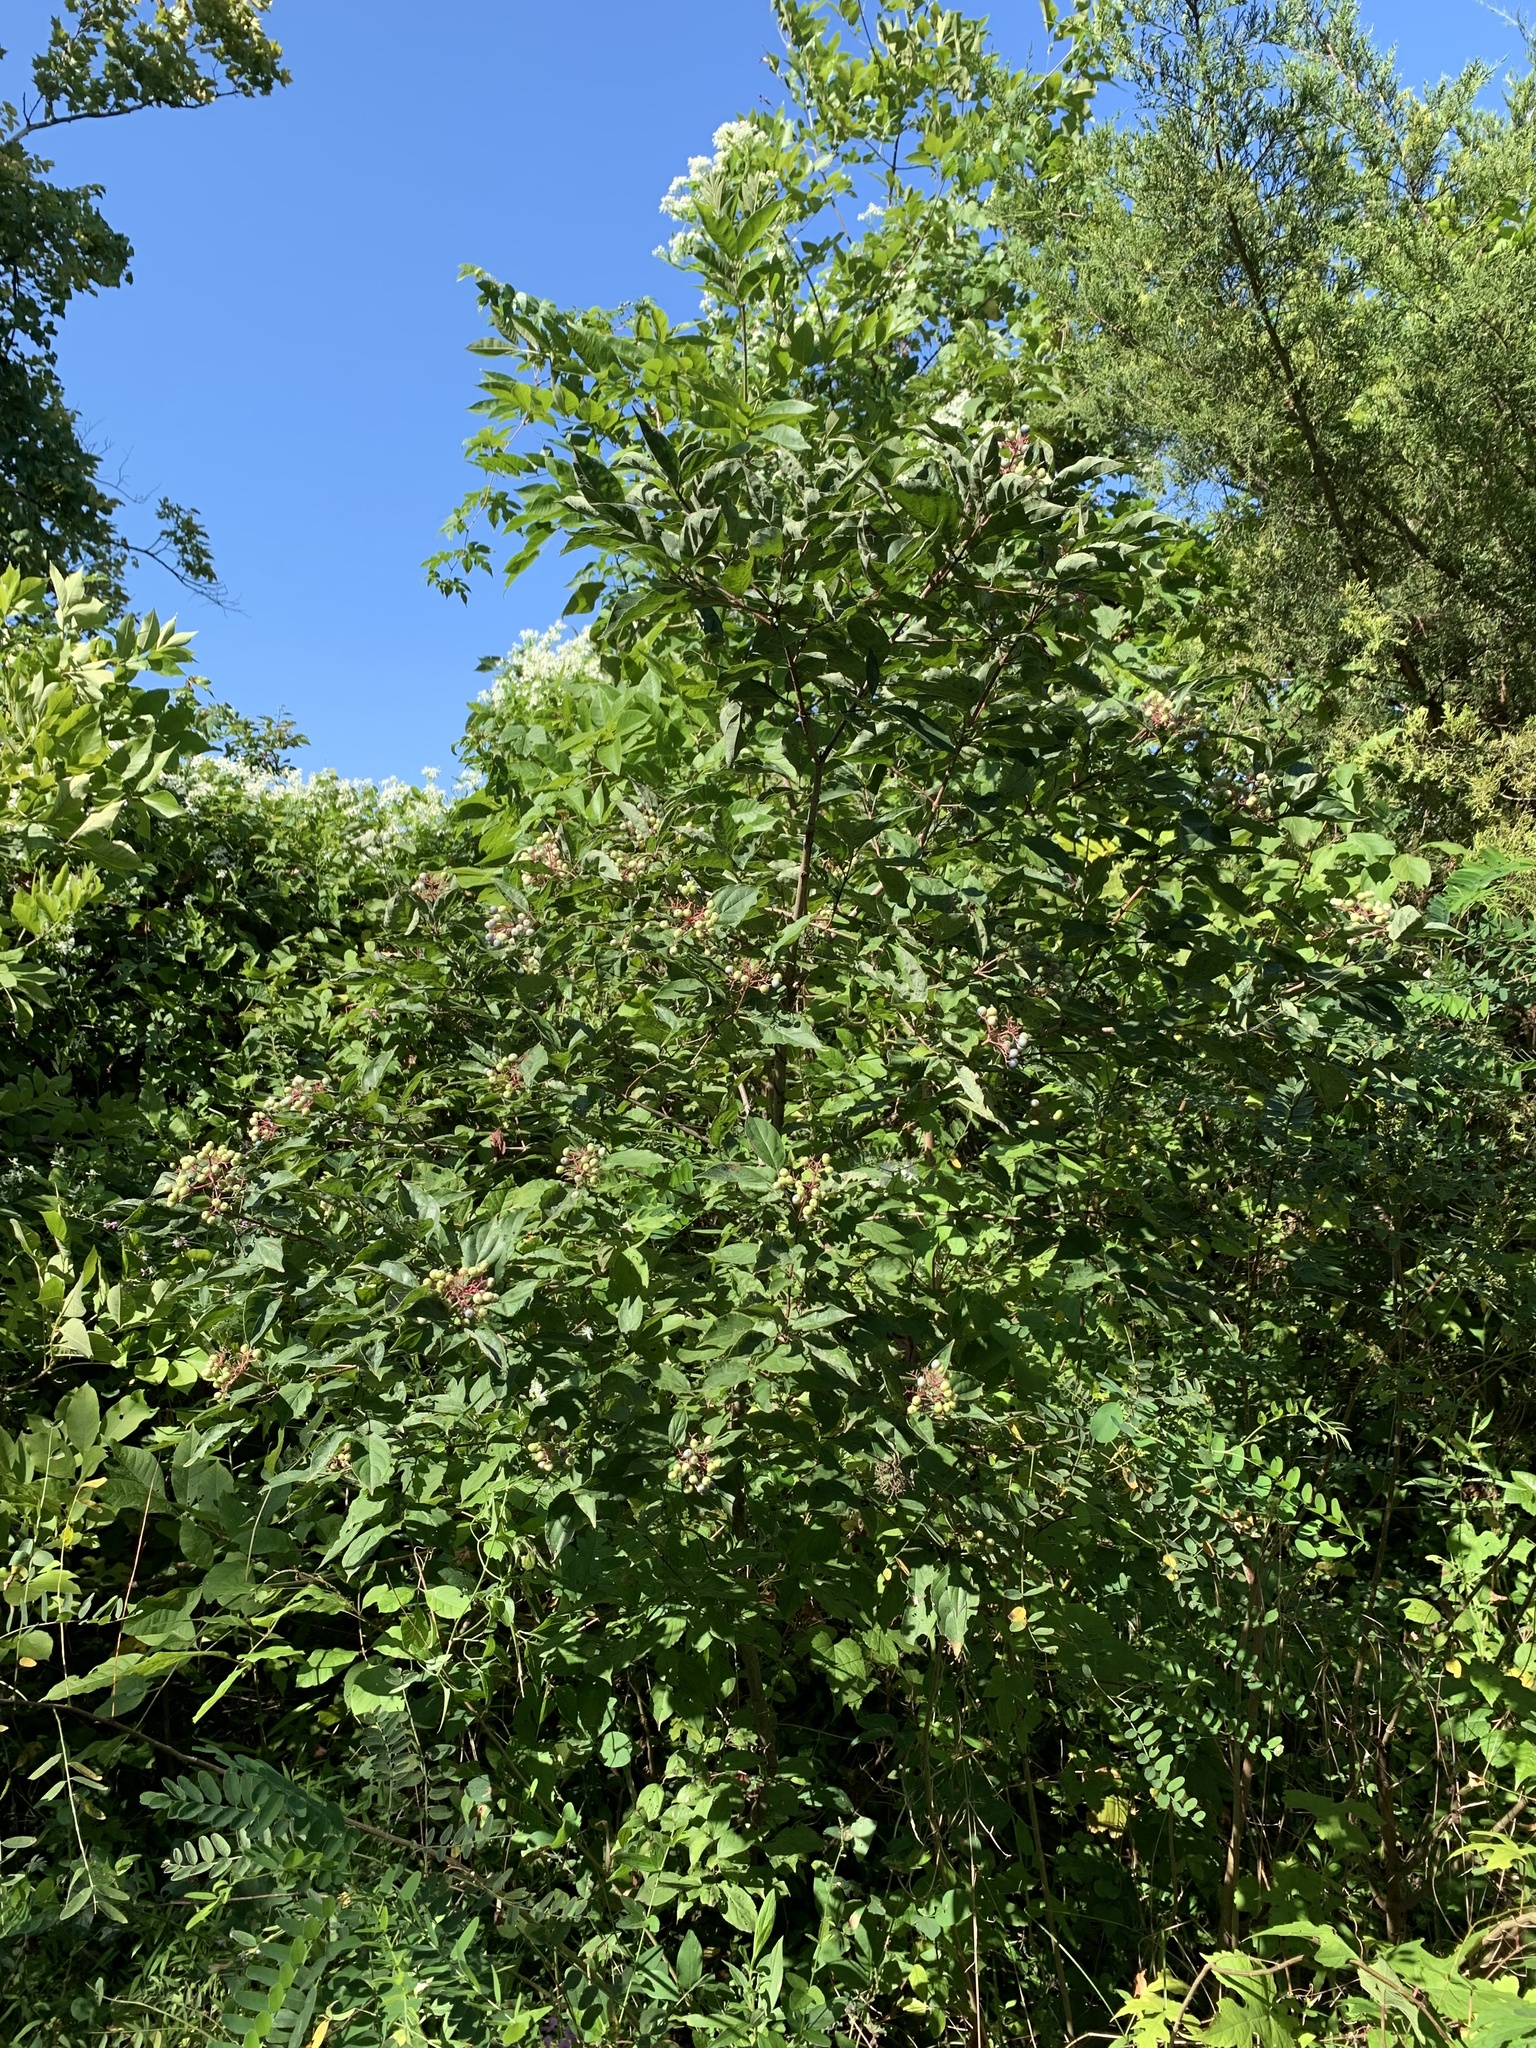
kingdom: Plantae
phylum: Tracheophyta
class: Magnoliopsida
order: Cornales
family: Cornaceae
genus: Cornus
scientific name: Cornus racemosa
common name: Panicled dogwood
